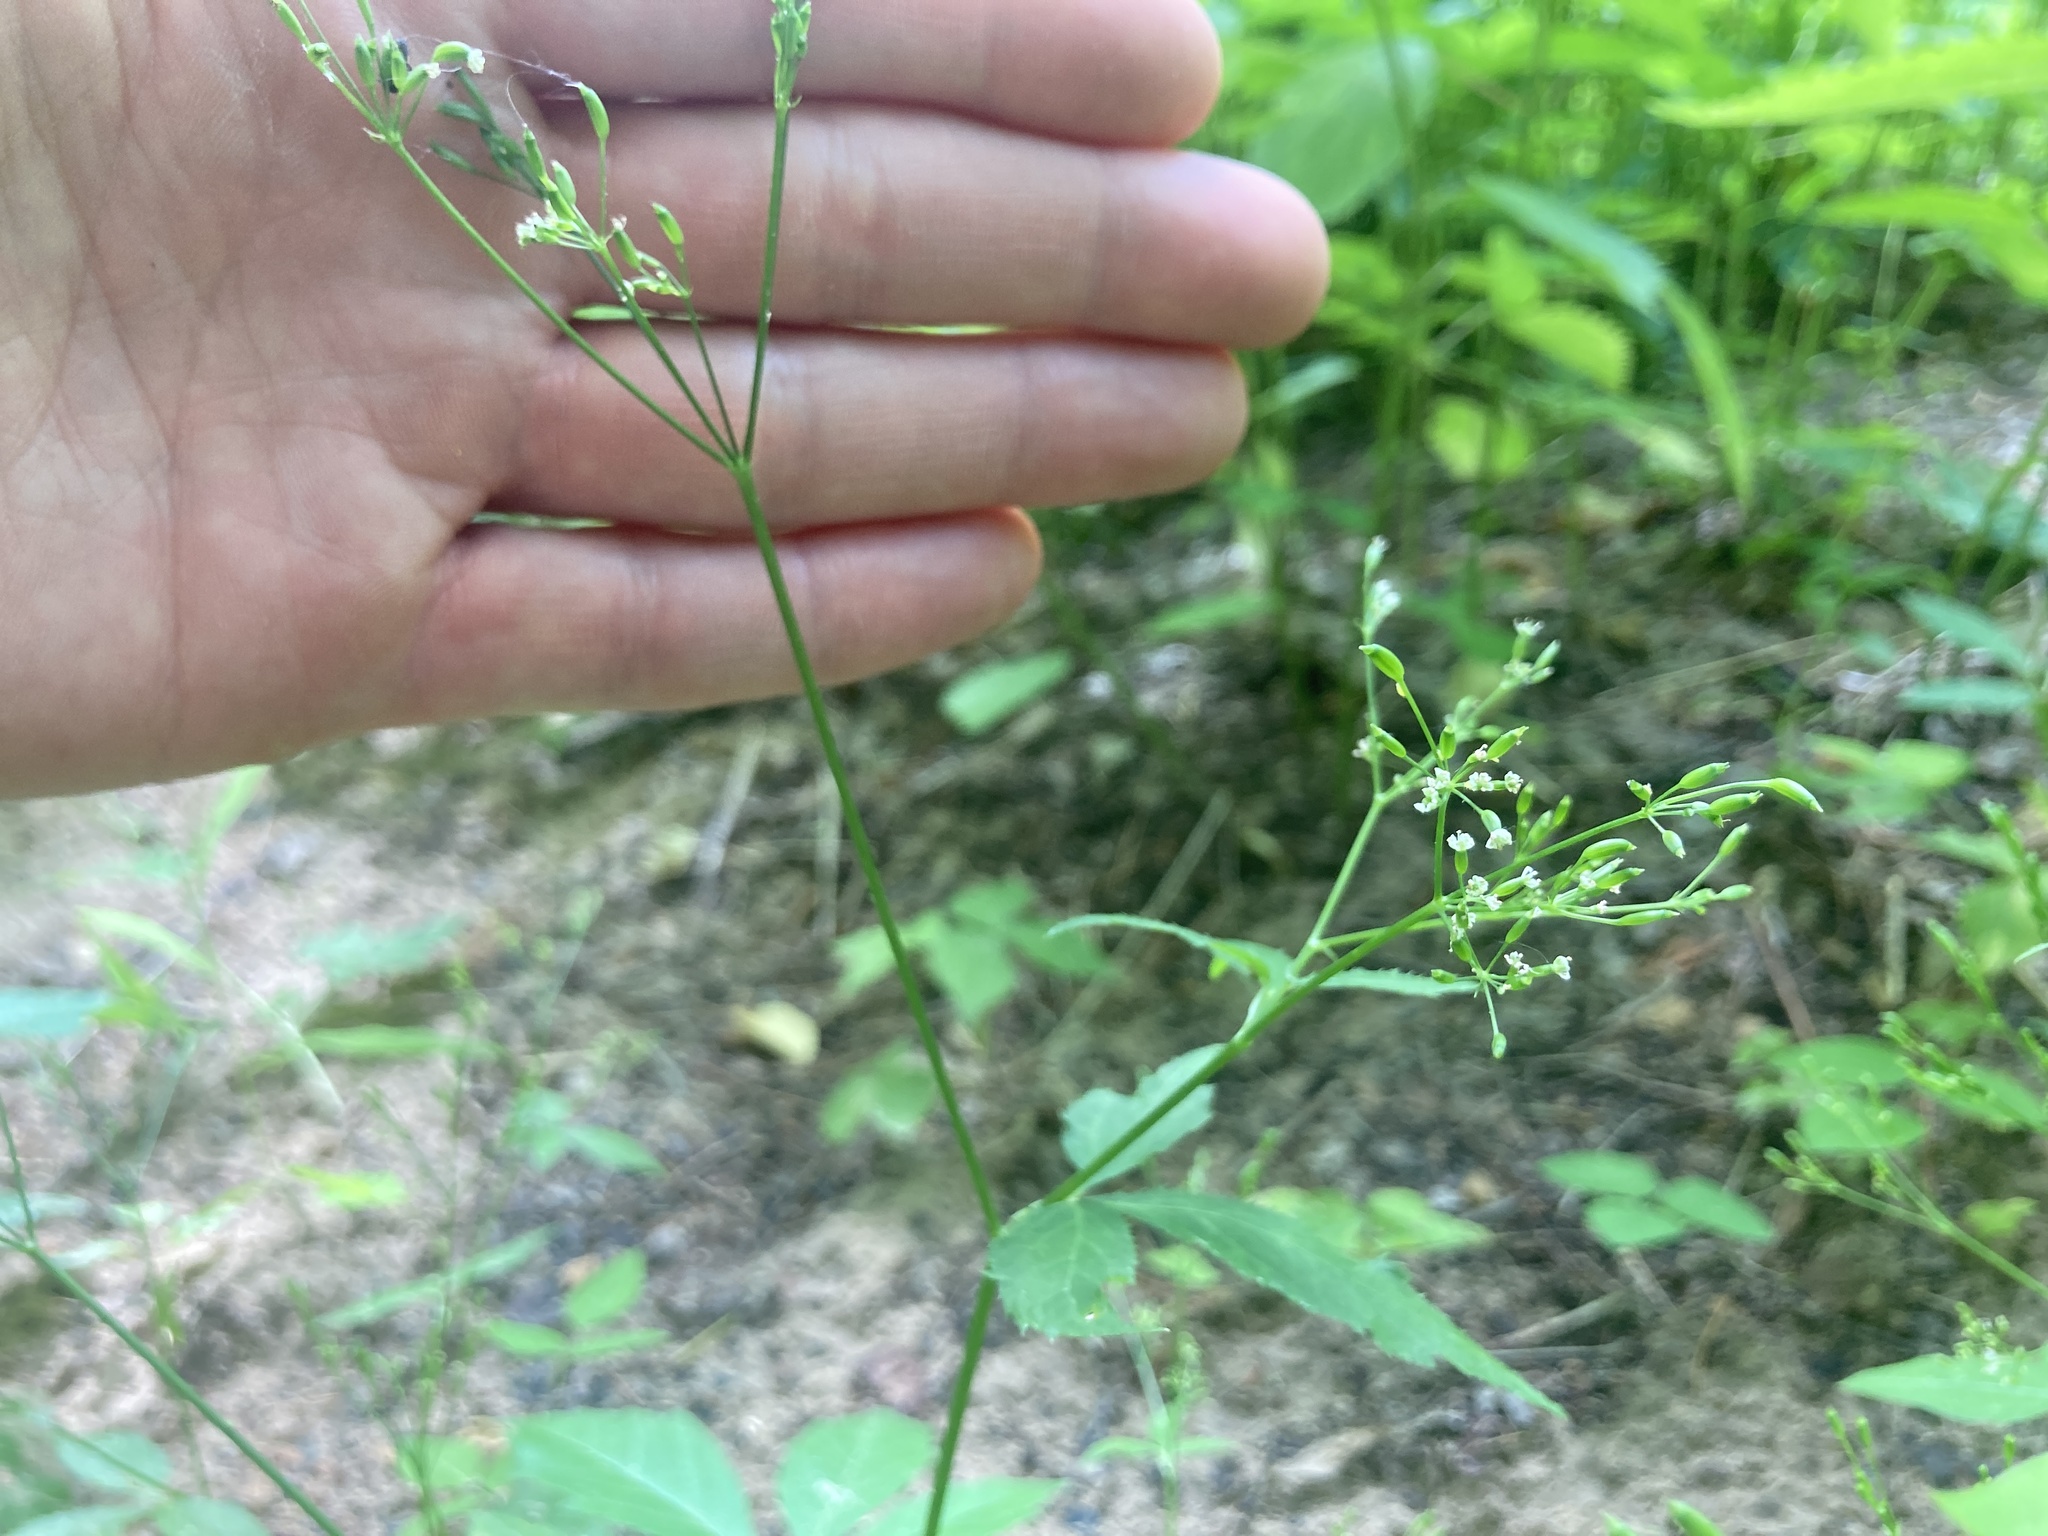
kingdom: Plantae
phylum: Tracheophyta
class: Magnoliopsida
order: Apiales
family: Apiaceae
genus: Cryptotaenia
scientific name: Cryptotaenia canadensis
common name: Honewort
